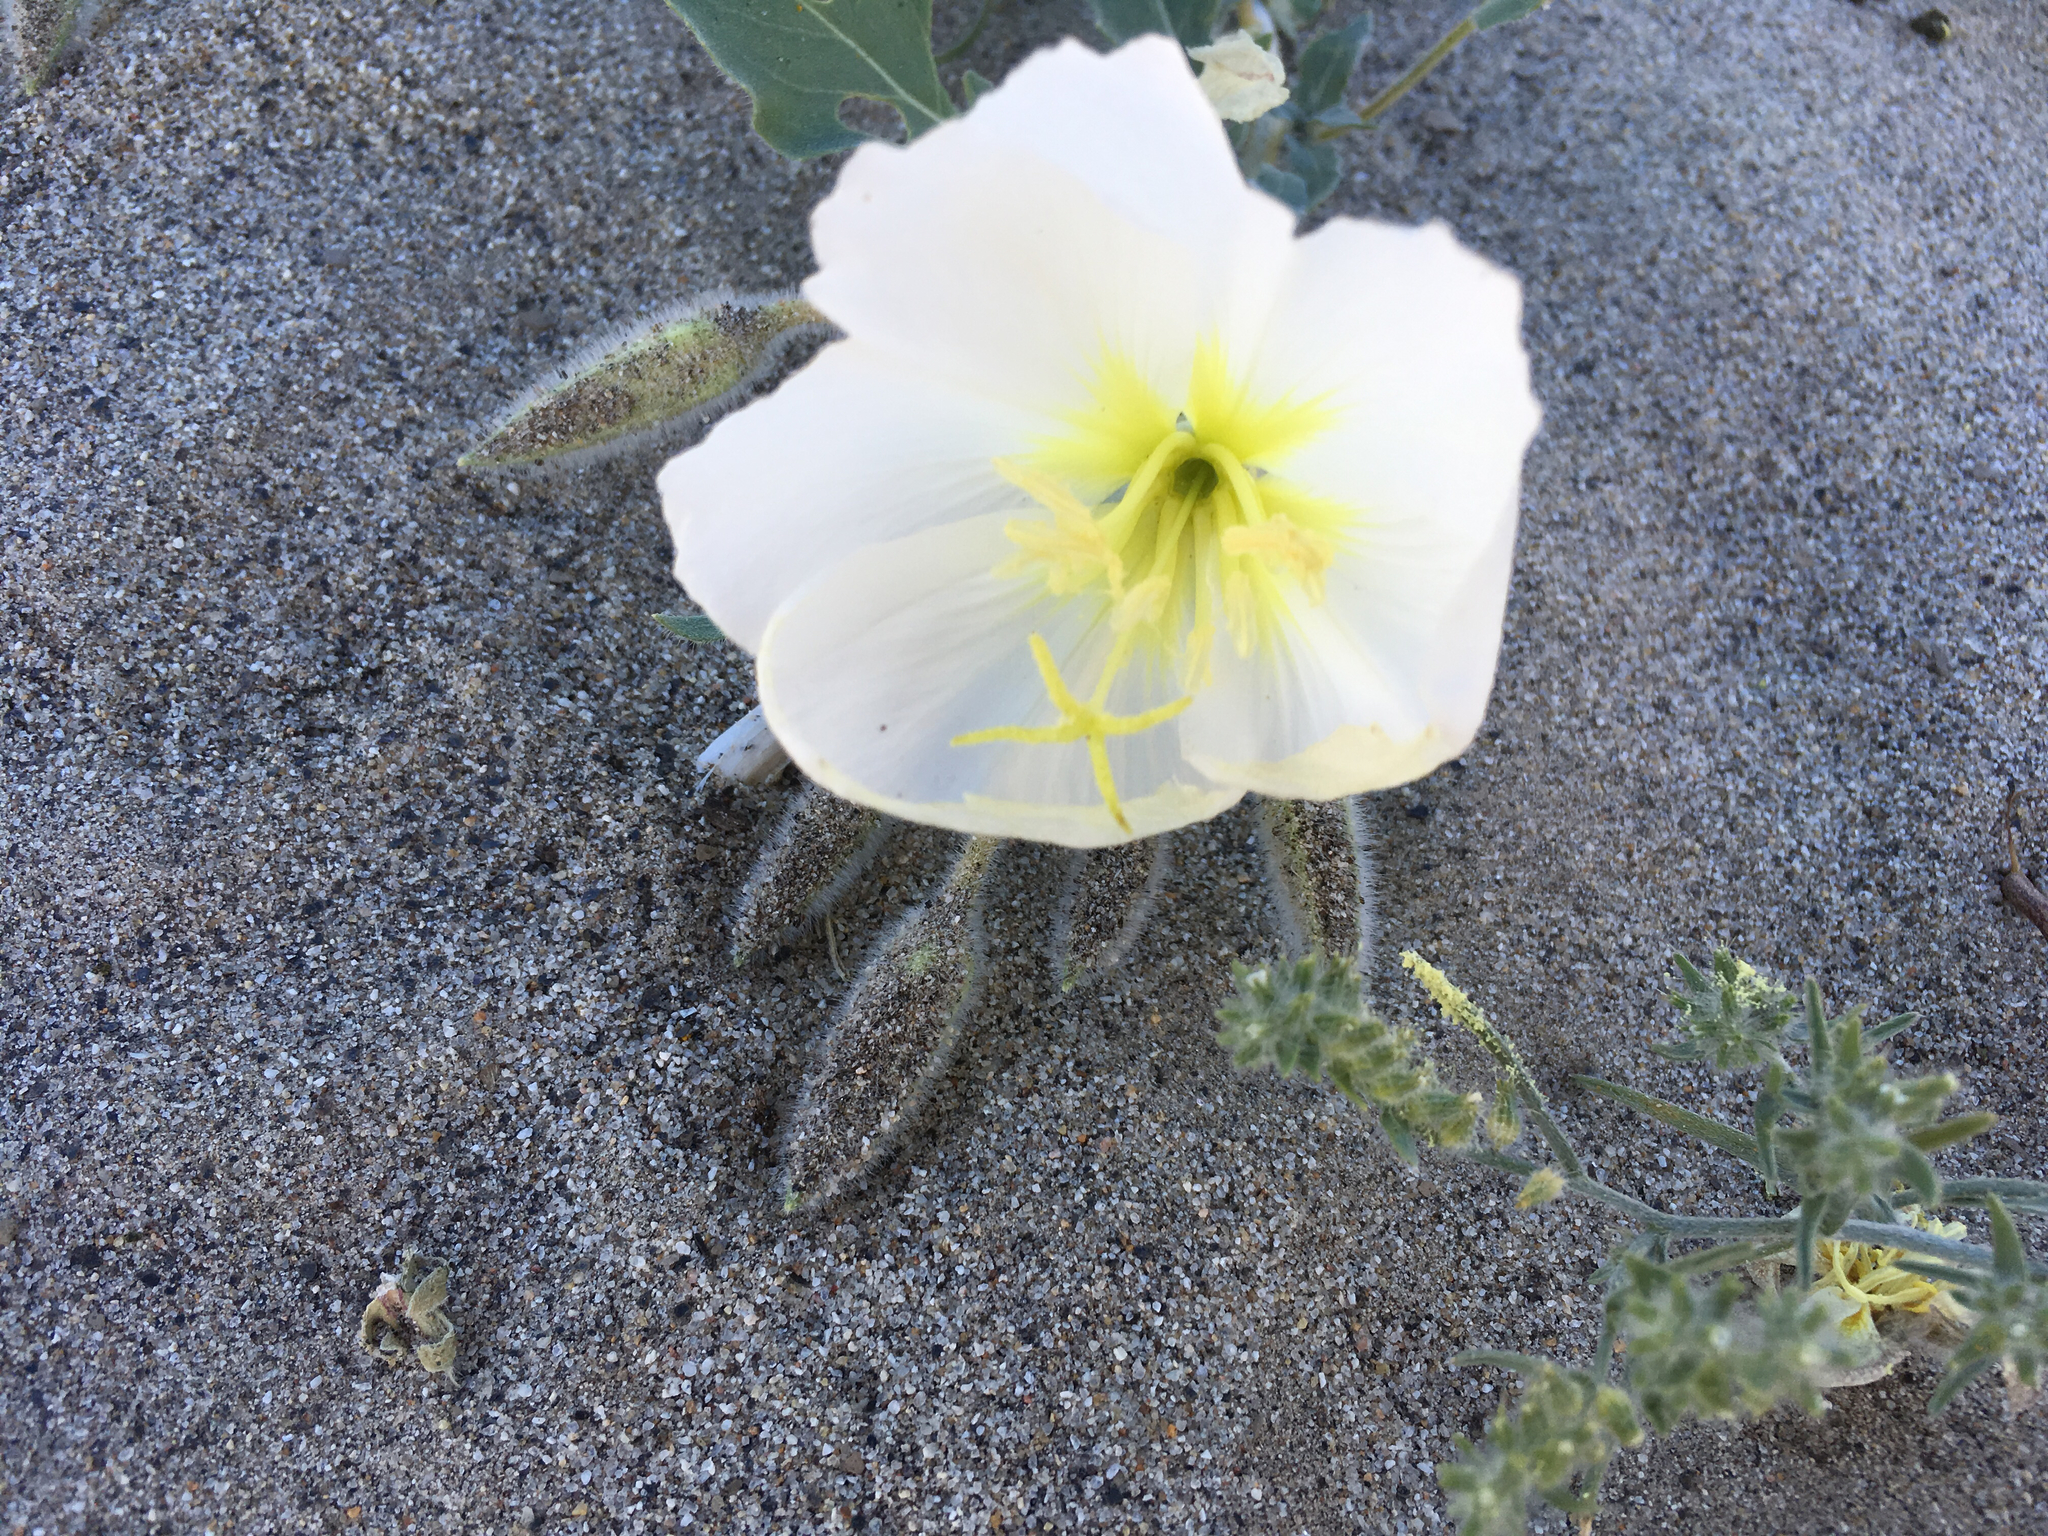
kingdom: Plantae
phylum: Tracheophyta
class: Magnoliopsida
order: Myrtales
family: Onagraceae
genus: Oenothera
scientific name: Oenothera deltoides
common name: Basket evening-primrose
